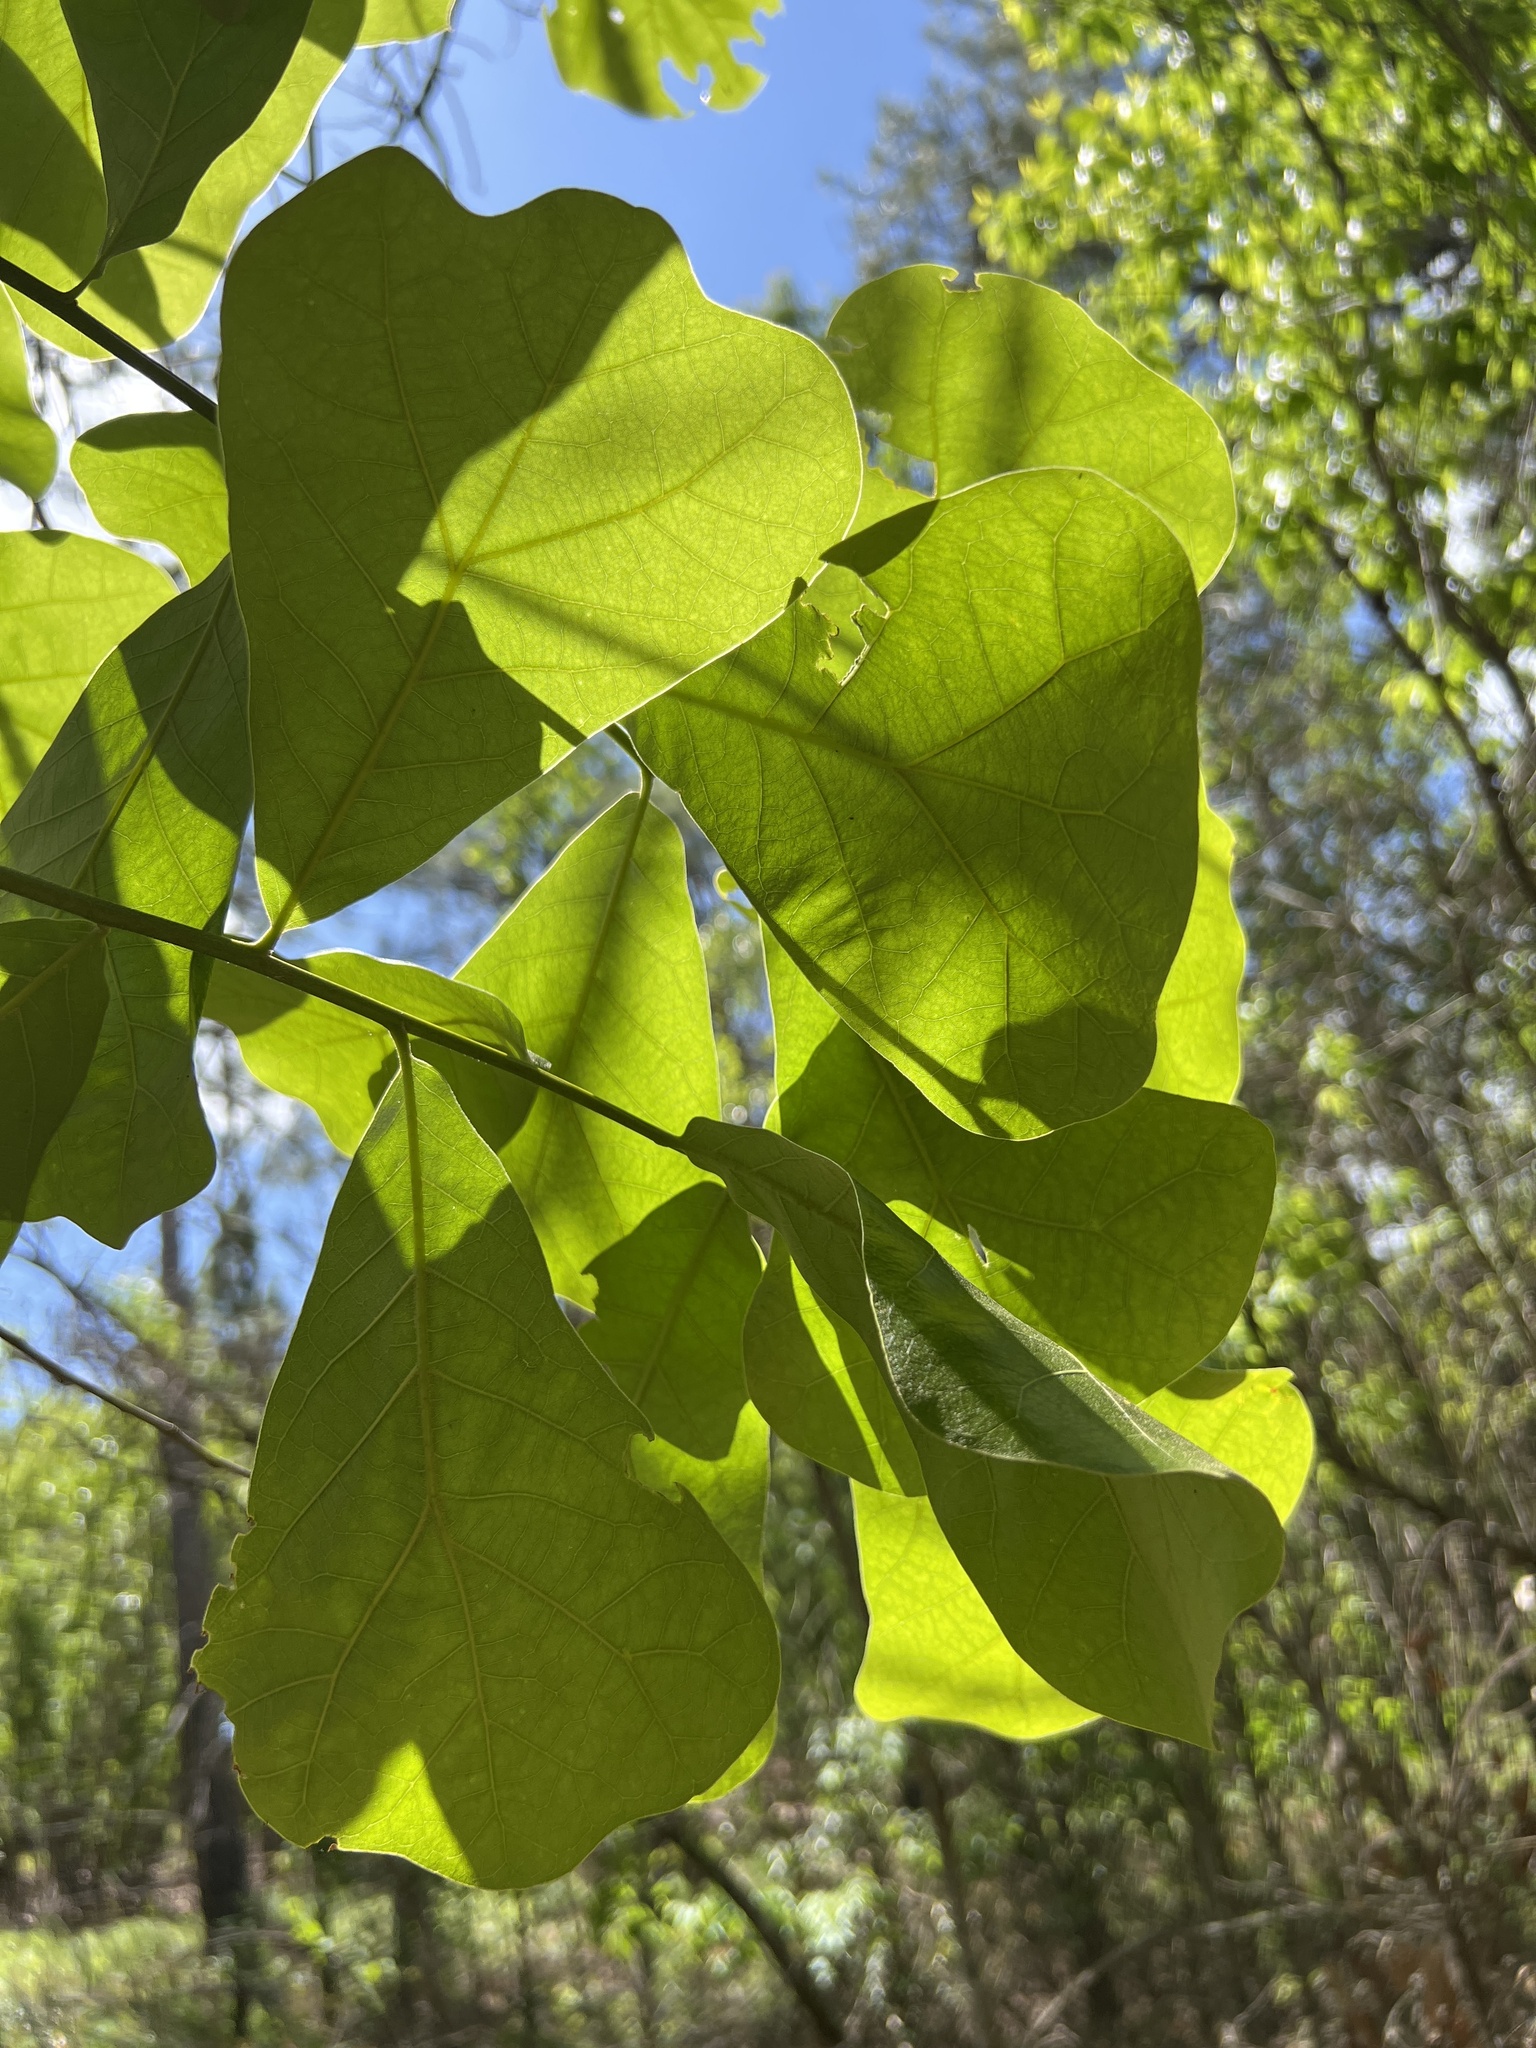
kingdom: Plantae
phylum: Tracheophyta
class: Magnoliopsida
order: Fagales
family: Fagaceae
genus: Quercus
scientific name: Quercus marilandica
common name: Blackjack oak
